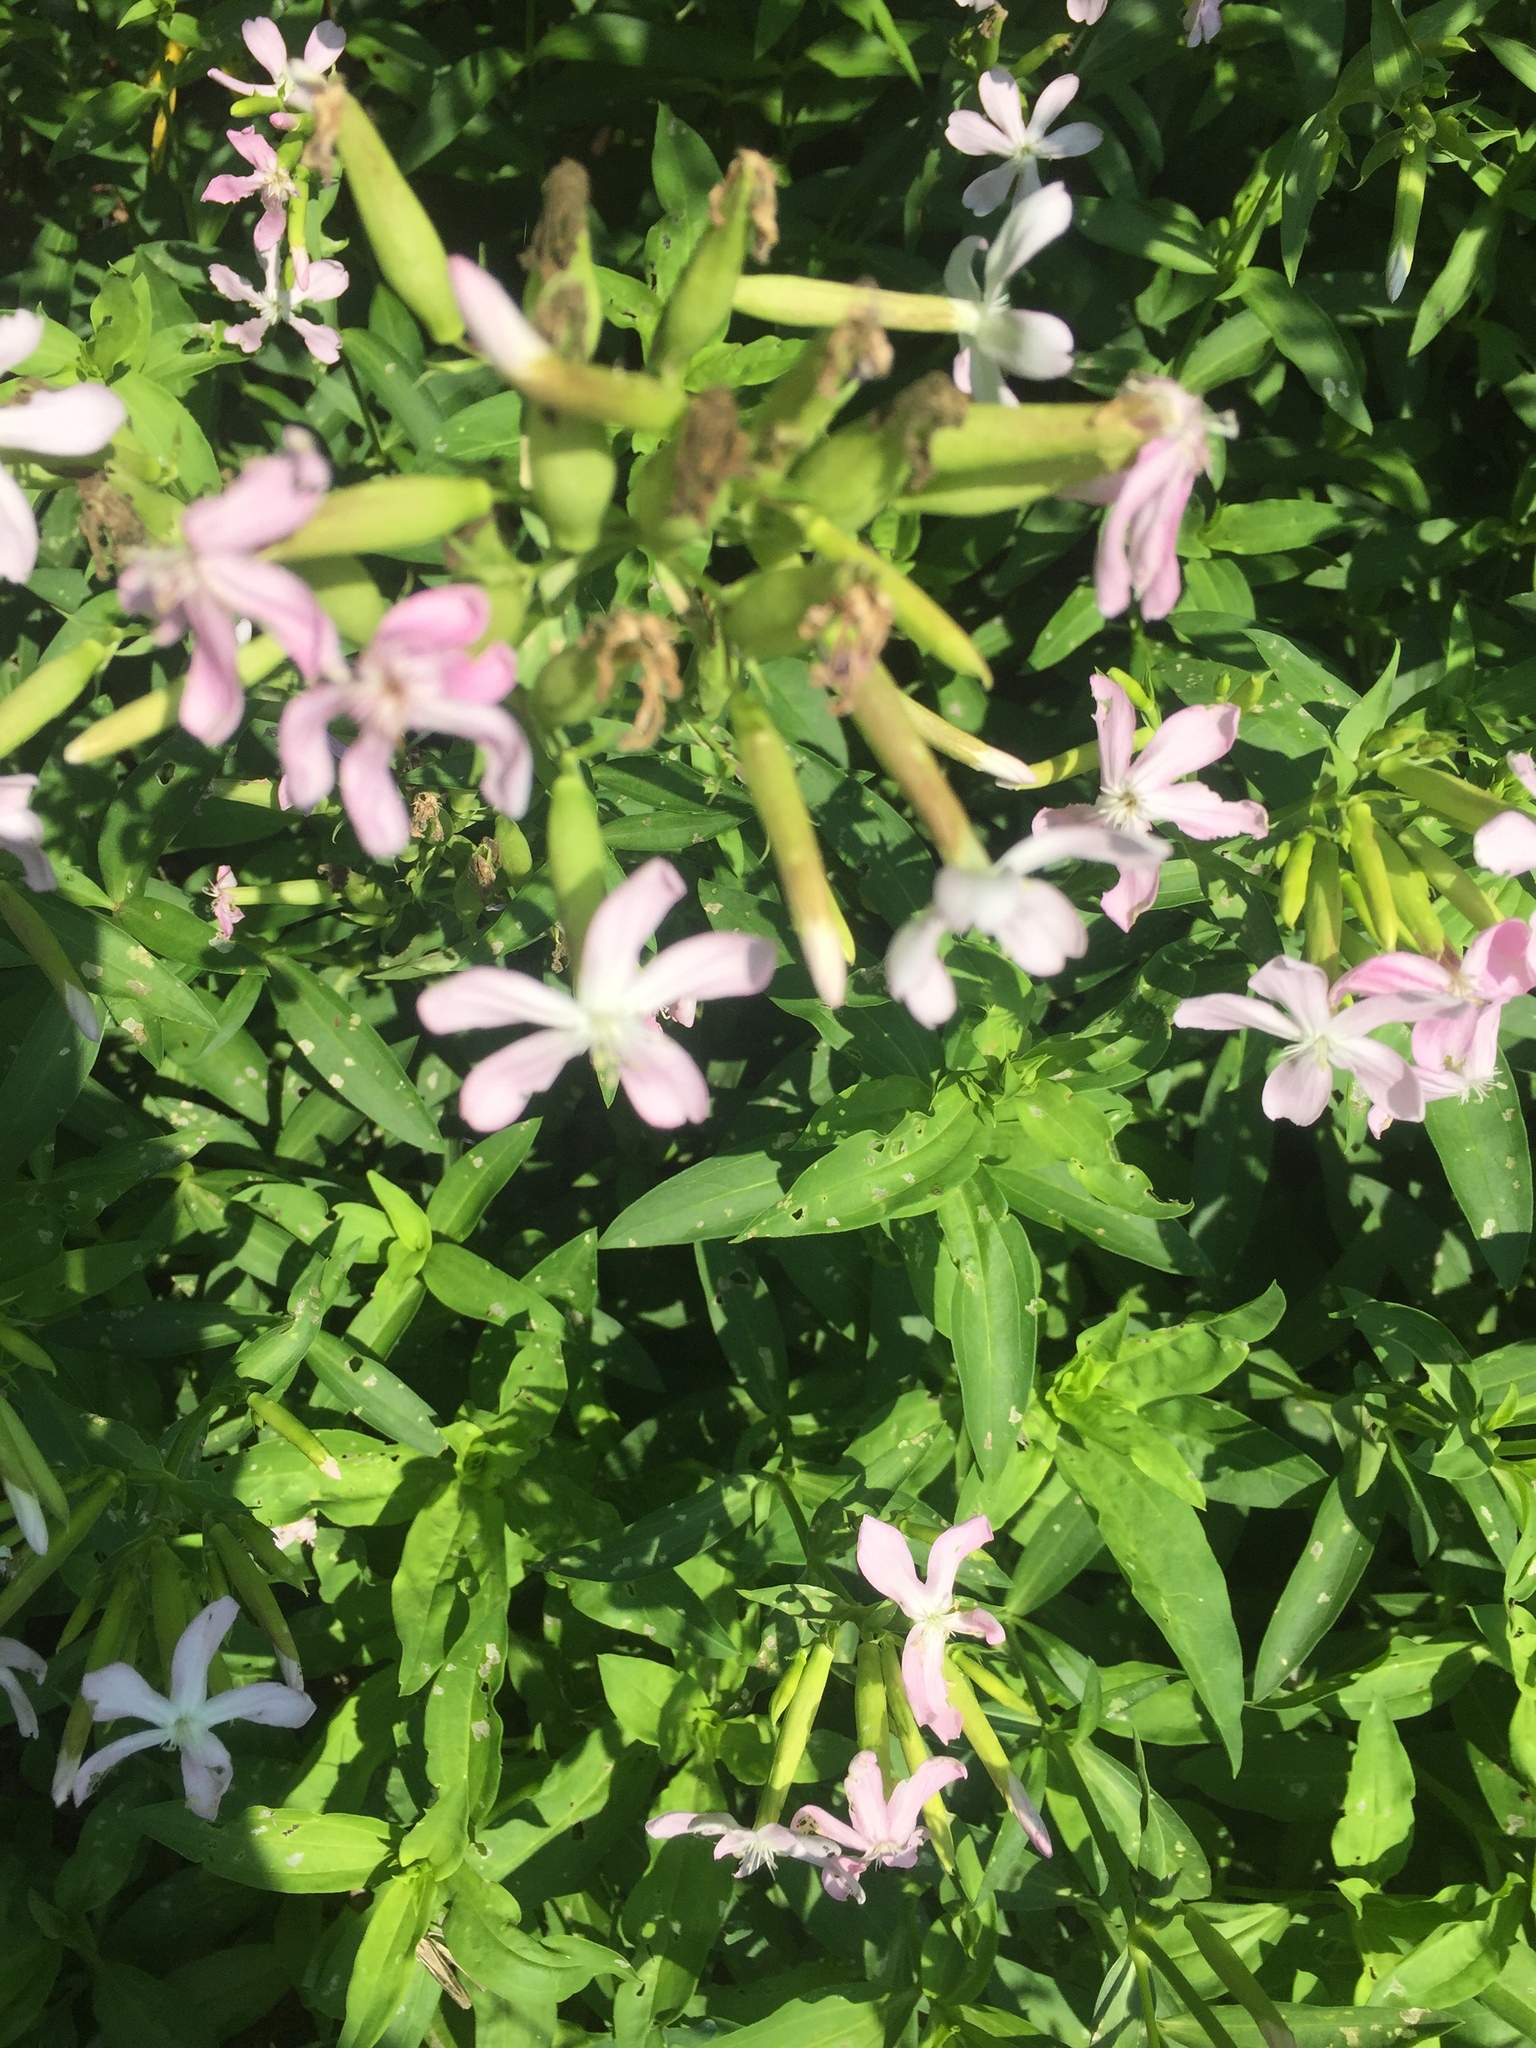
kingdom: Plantae
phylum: Tracheophyta
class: Magnoliopsida
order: Caryophyllales
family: Caryophyllaceae
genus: Saponaria
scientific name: Saponaria officinalis
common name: Soapwort
